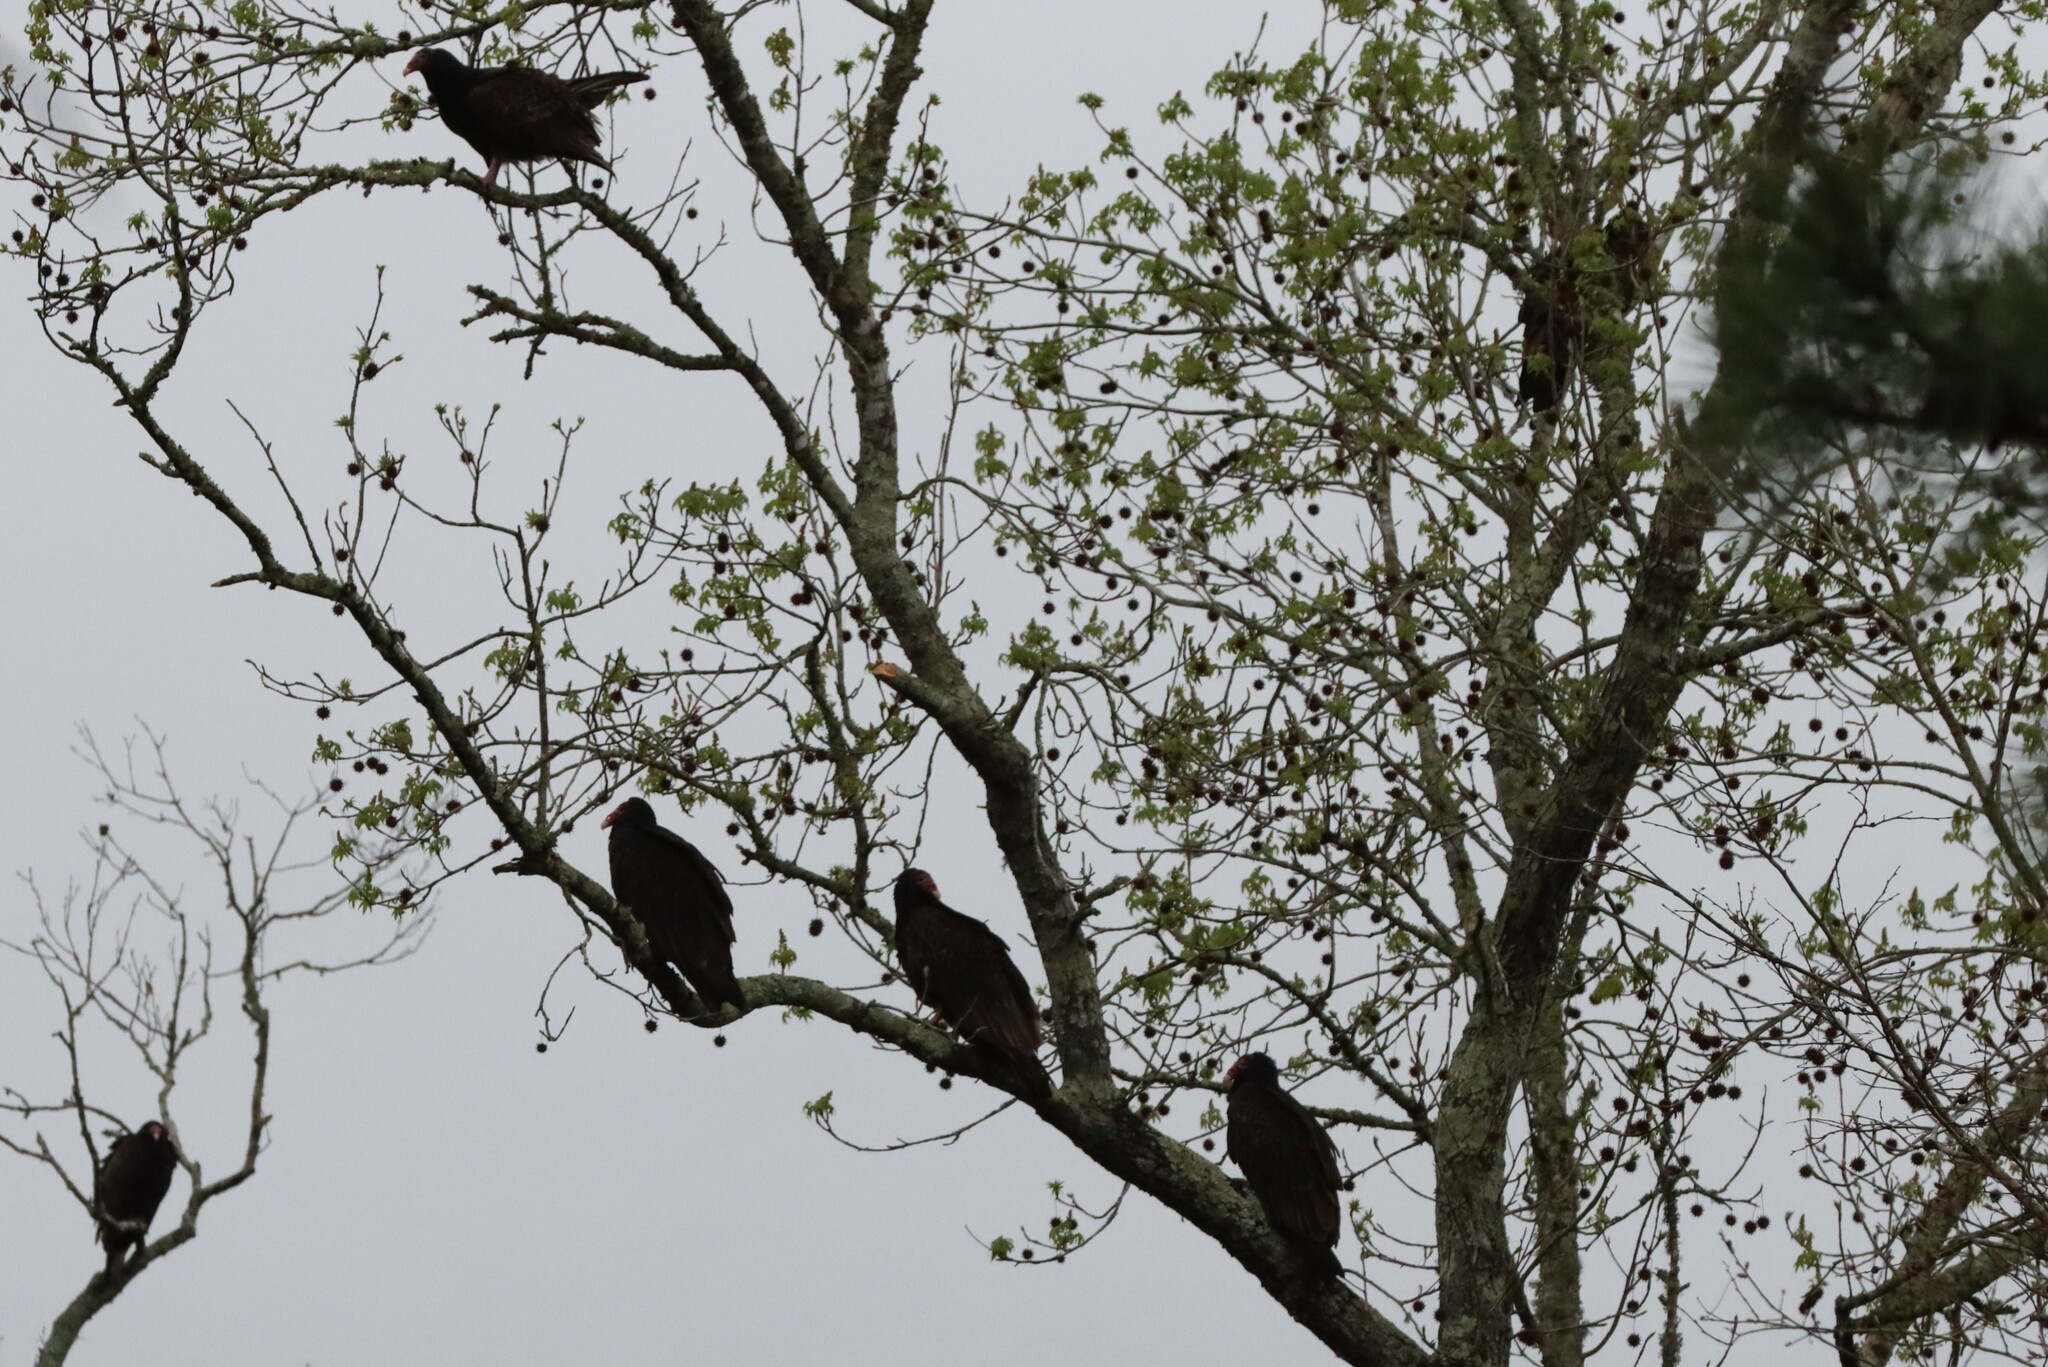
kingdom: Animalia
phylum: Chordata
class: Aves
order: Accipitriformes
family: Cathartidae
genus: Cathartes
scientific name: Cathartes aura
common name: Turkey vulture
